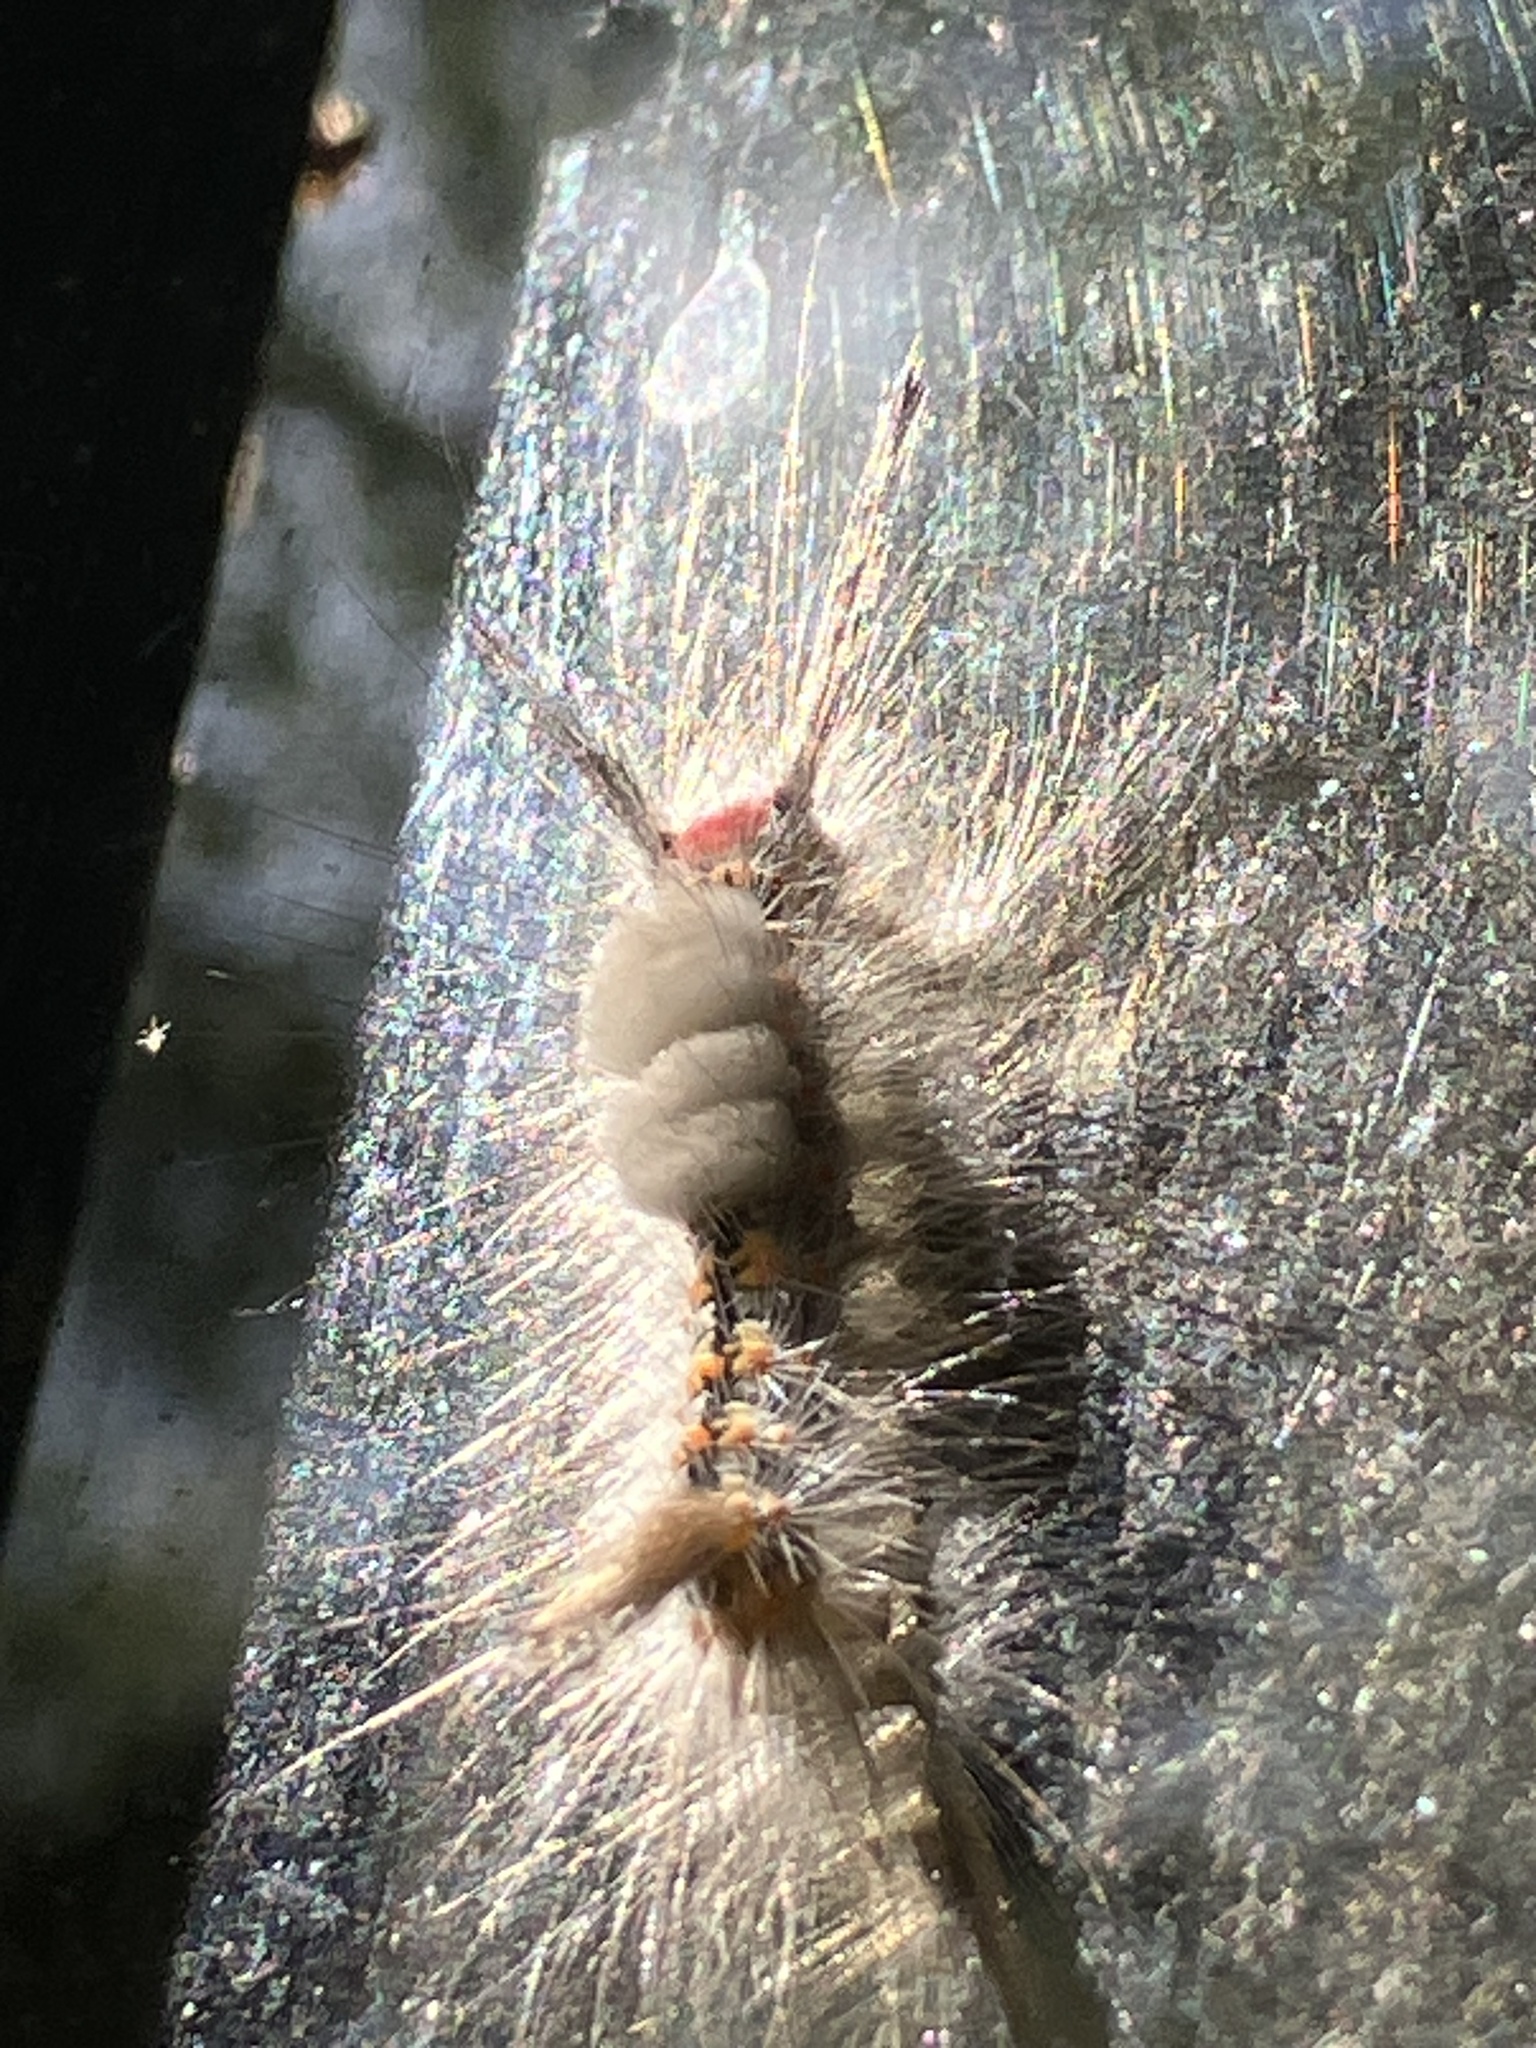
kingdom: Animalia
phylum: Arthropoda
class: Insecta
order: Lepidoptera
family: Erebidae
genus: Orgyia
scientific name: Orgyia detrita
